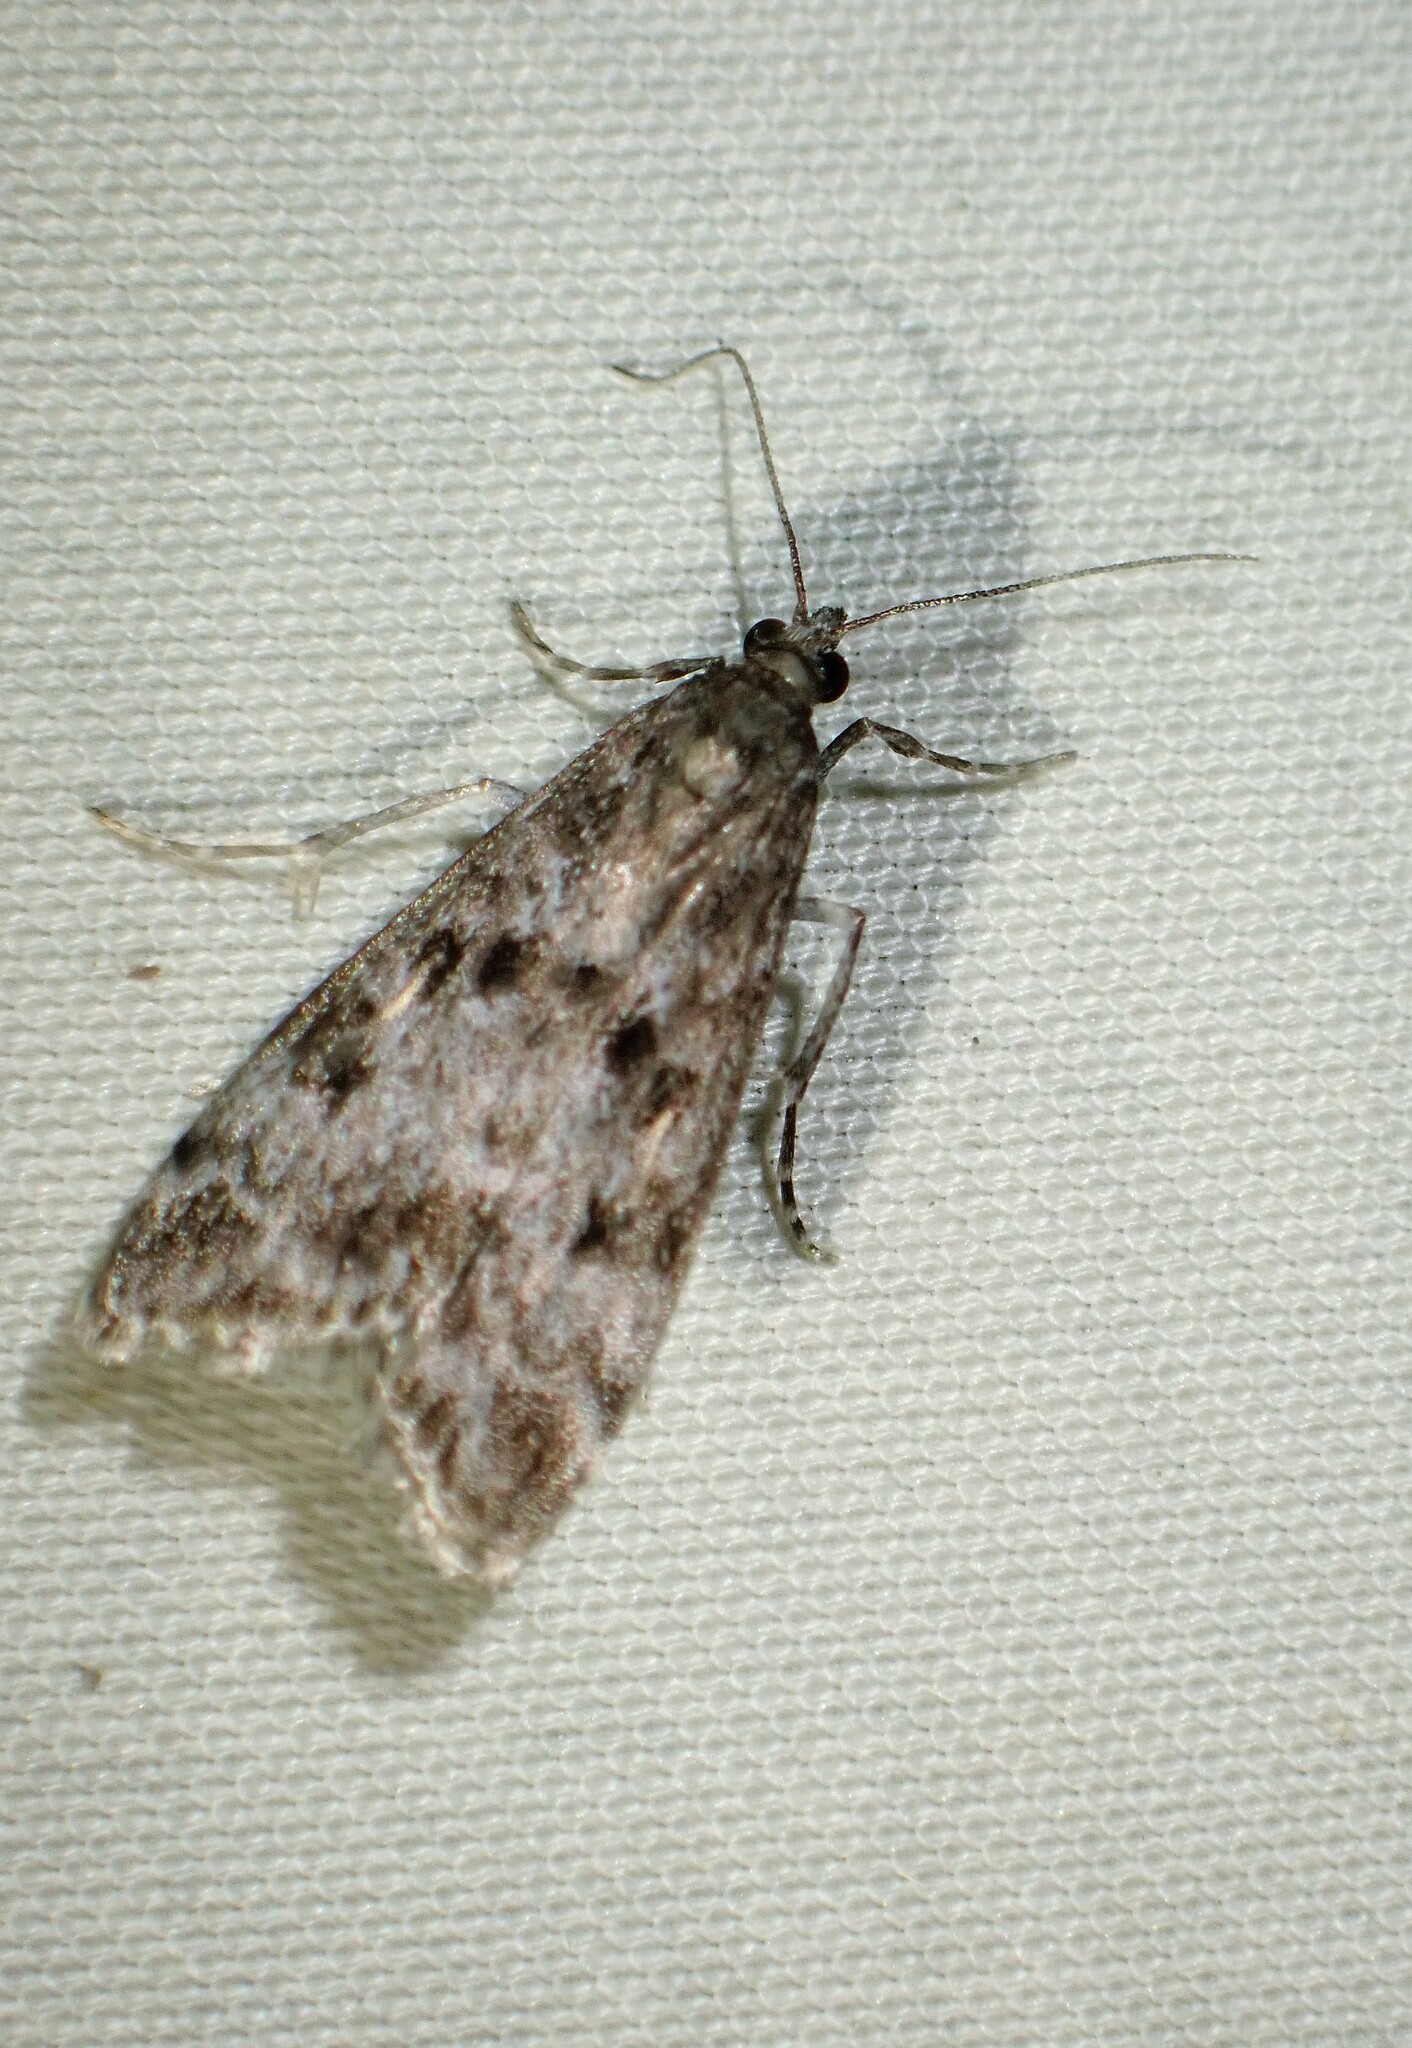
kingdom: Animalia
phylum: Arthropoda
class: Insecta
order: Lepidoptera
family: Crambidae
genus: Eudonia
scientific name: Eudonia heterosalis
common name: Mcdunnough's eudonia
